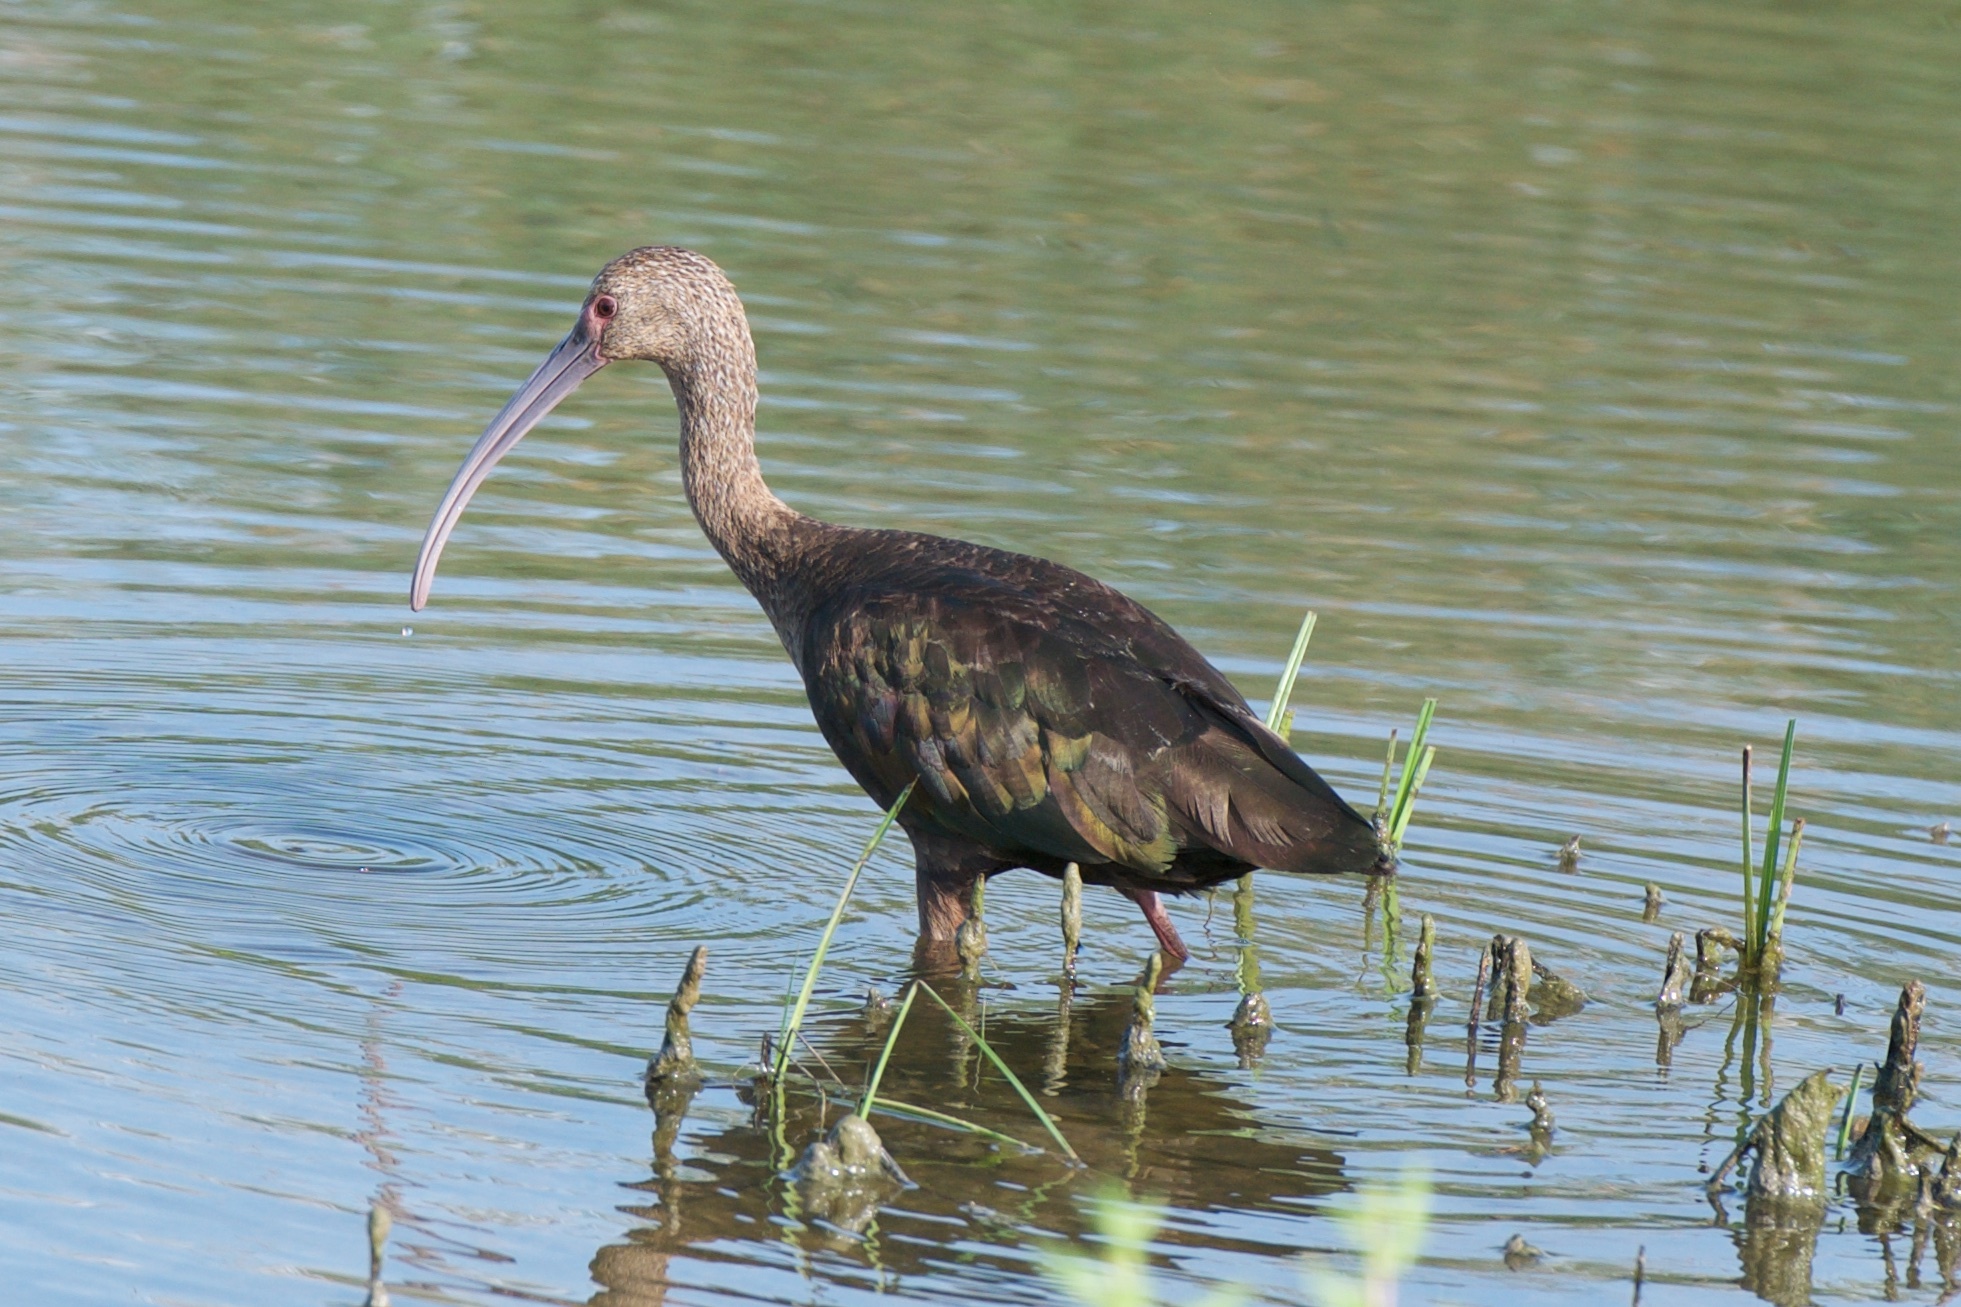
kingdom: Animalia
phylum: Chordata
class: Aves
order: Pelecaniformes
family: Threskiornithidae
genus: Plegadis
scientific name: Plegadis chihi
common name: White-faced ibis
